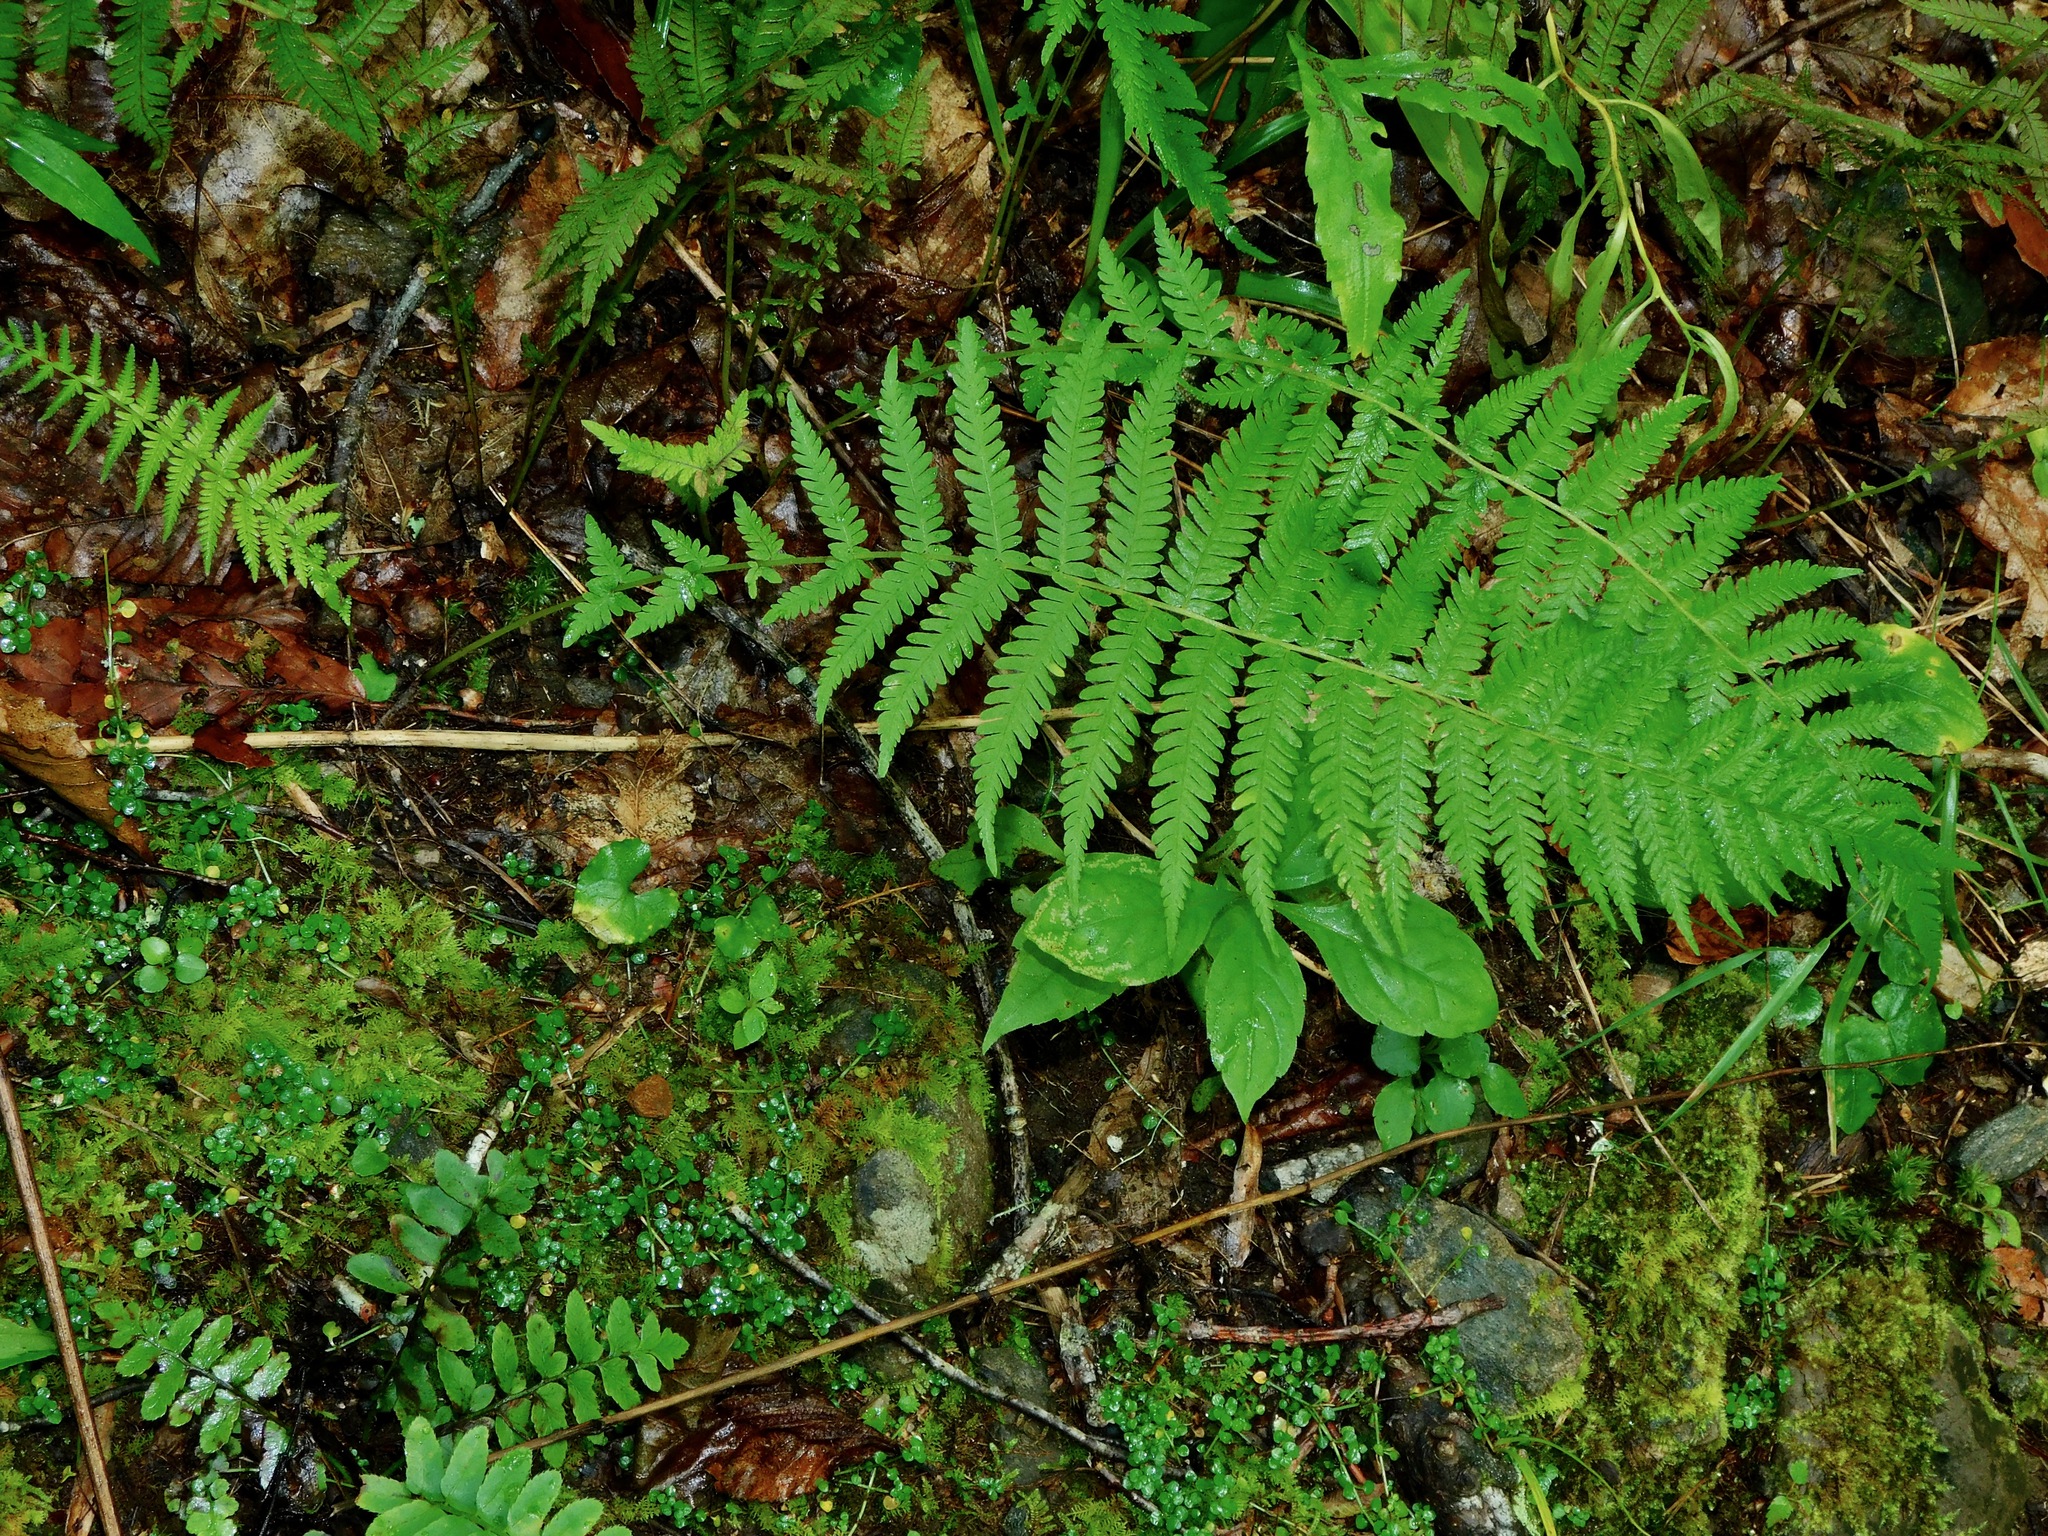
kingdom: Plantae
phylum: Tracheophyta
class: Polypodiopsida
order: Polypodiales
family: Thelypteridaceae
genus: Amauropelta
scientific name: Amauropelta noveboracensis
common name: New york fern
